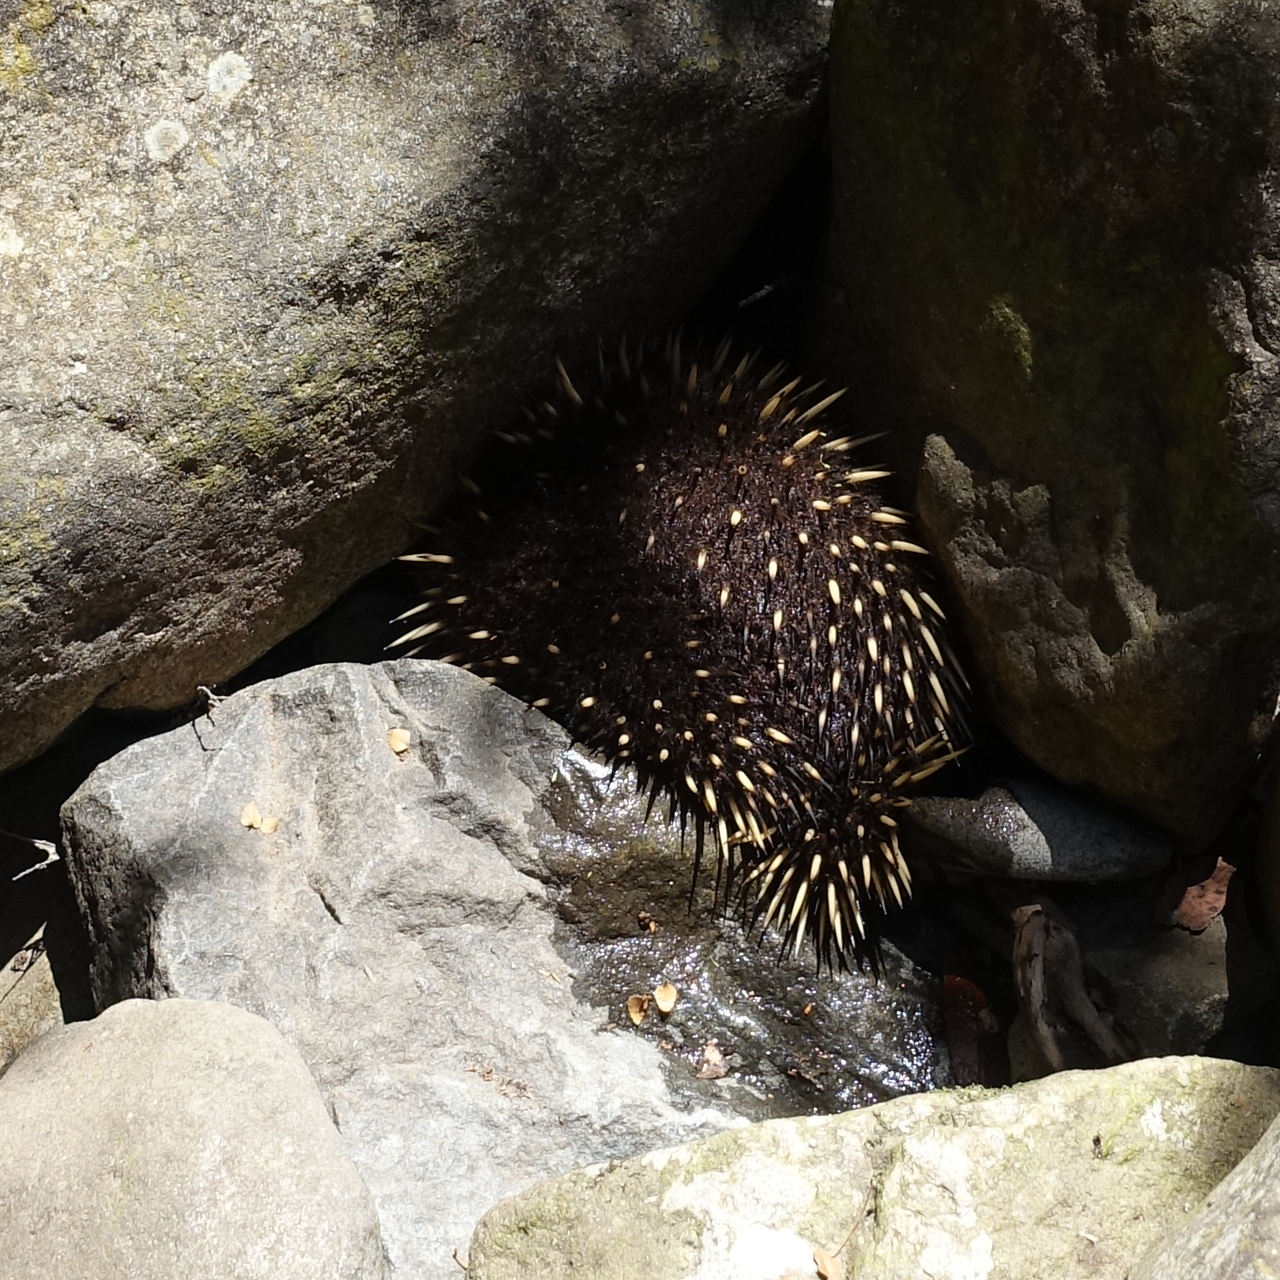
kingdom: Animalia
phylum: Chordata
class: Mammalia
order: Monotremata
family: Tachyglossidae
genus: Tachyglossus
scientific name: Tachyglossus aculeatus
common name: Short-beaked echidna
